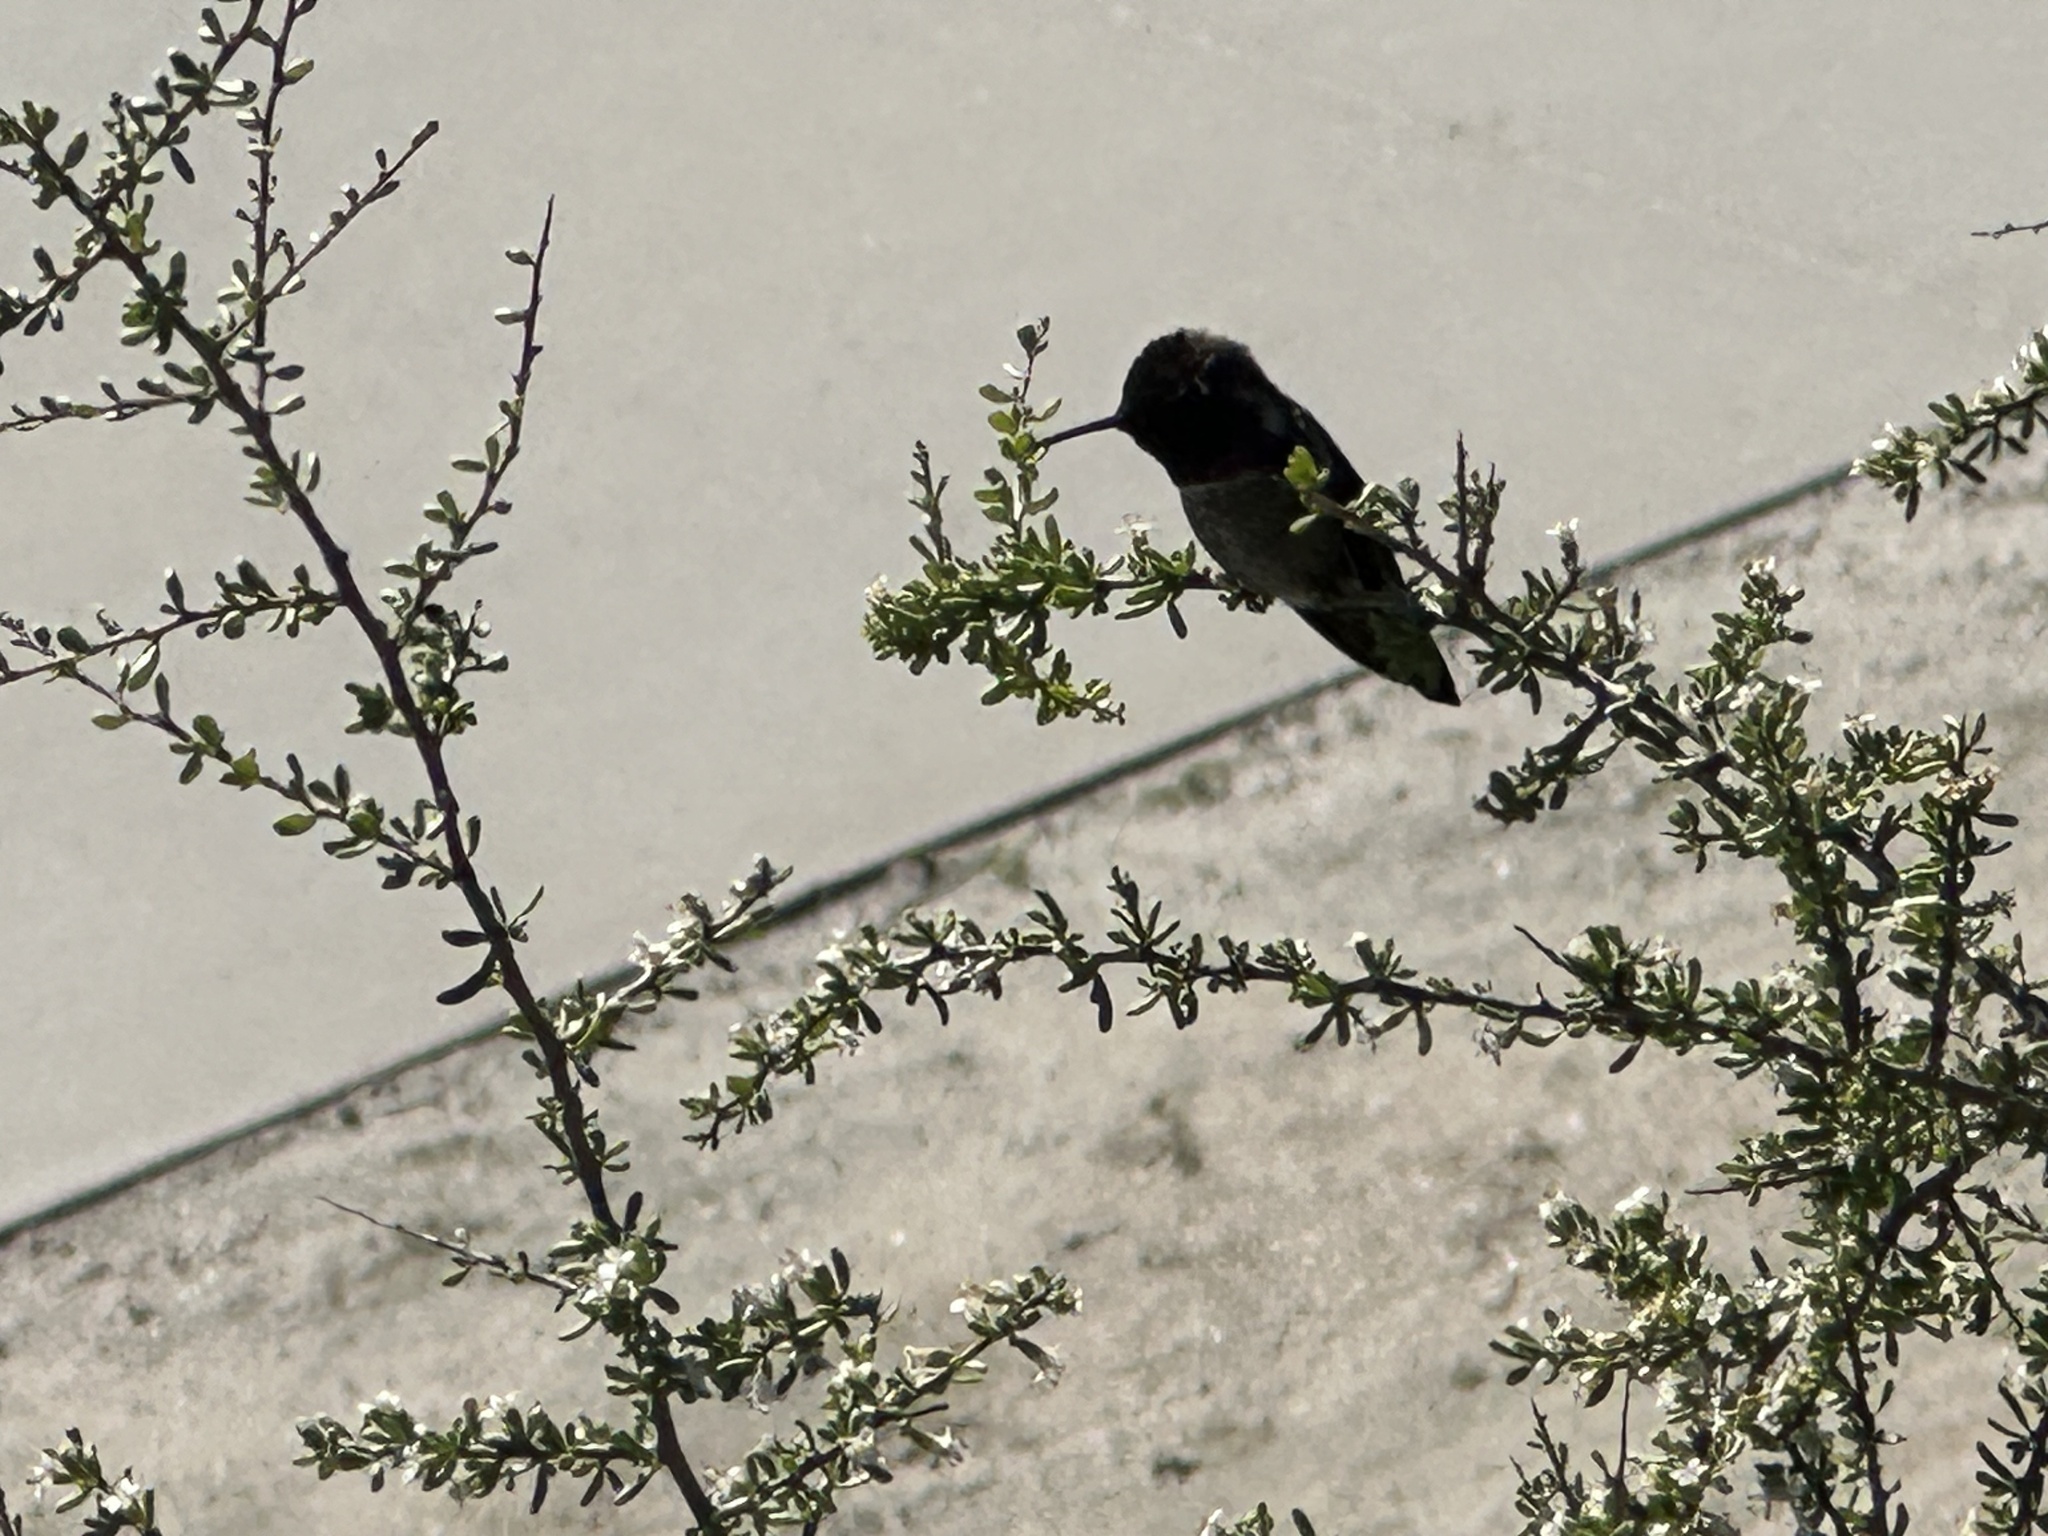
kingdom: Animalia
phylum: Chordata
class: Aves
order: Apodiformes
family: Trochilidae
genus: Calypte
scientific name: Calypte anna
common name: Anna's hummingbird
